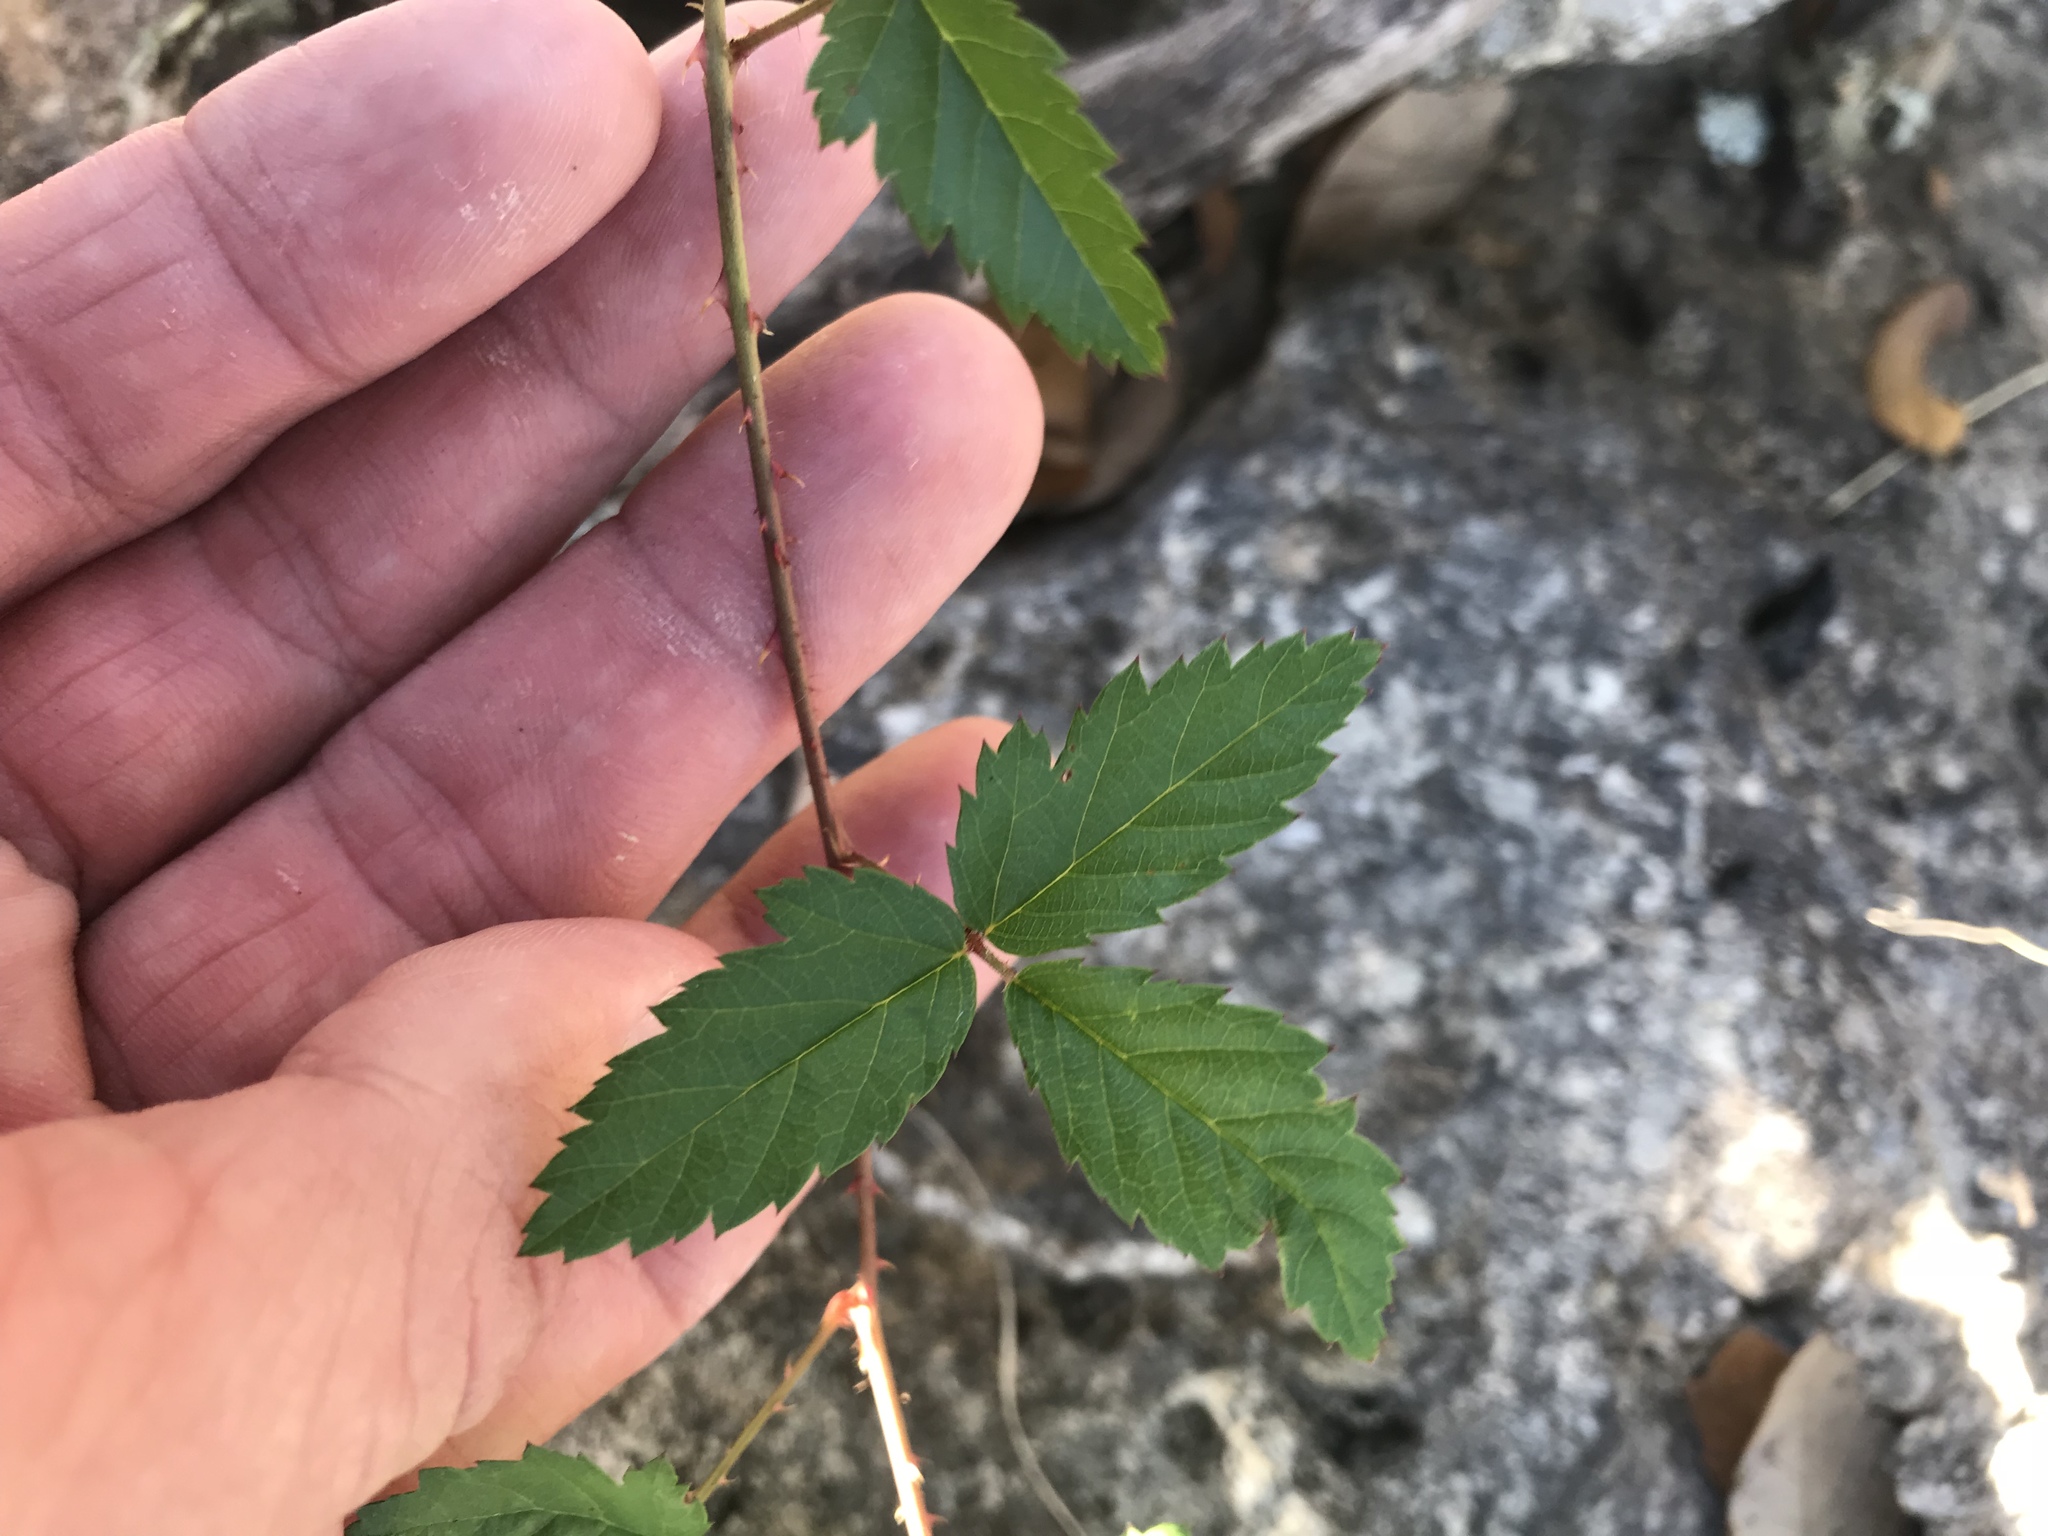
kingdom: Plantae
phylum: Tracheophyta
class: Magnoliopsida
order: Rosales
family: Rosaceae
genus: Rubus
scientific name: Rubus trivialis
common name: Southern dewberry
